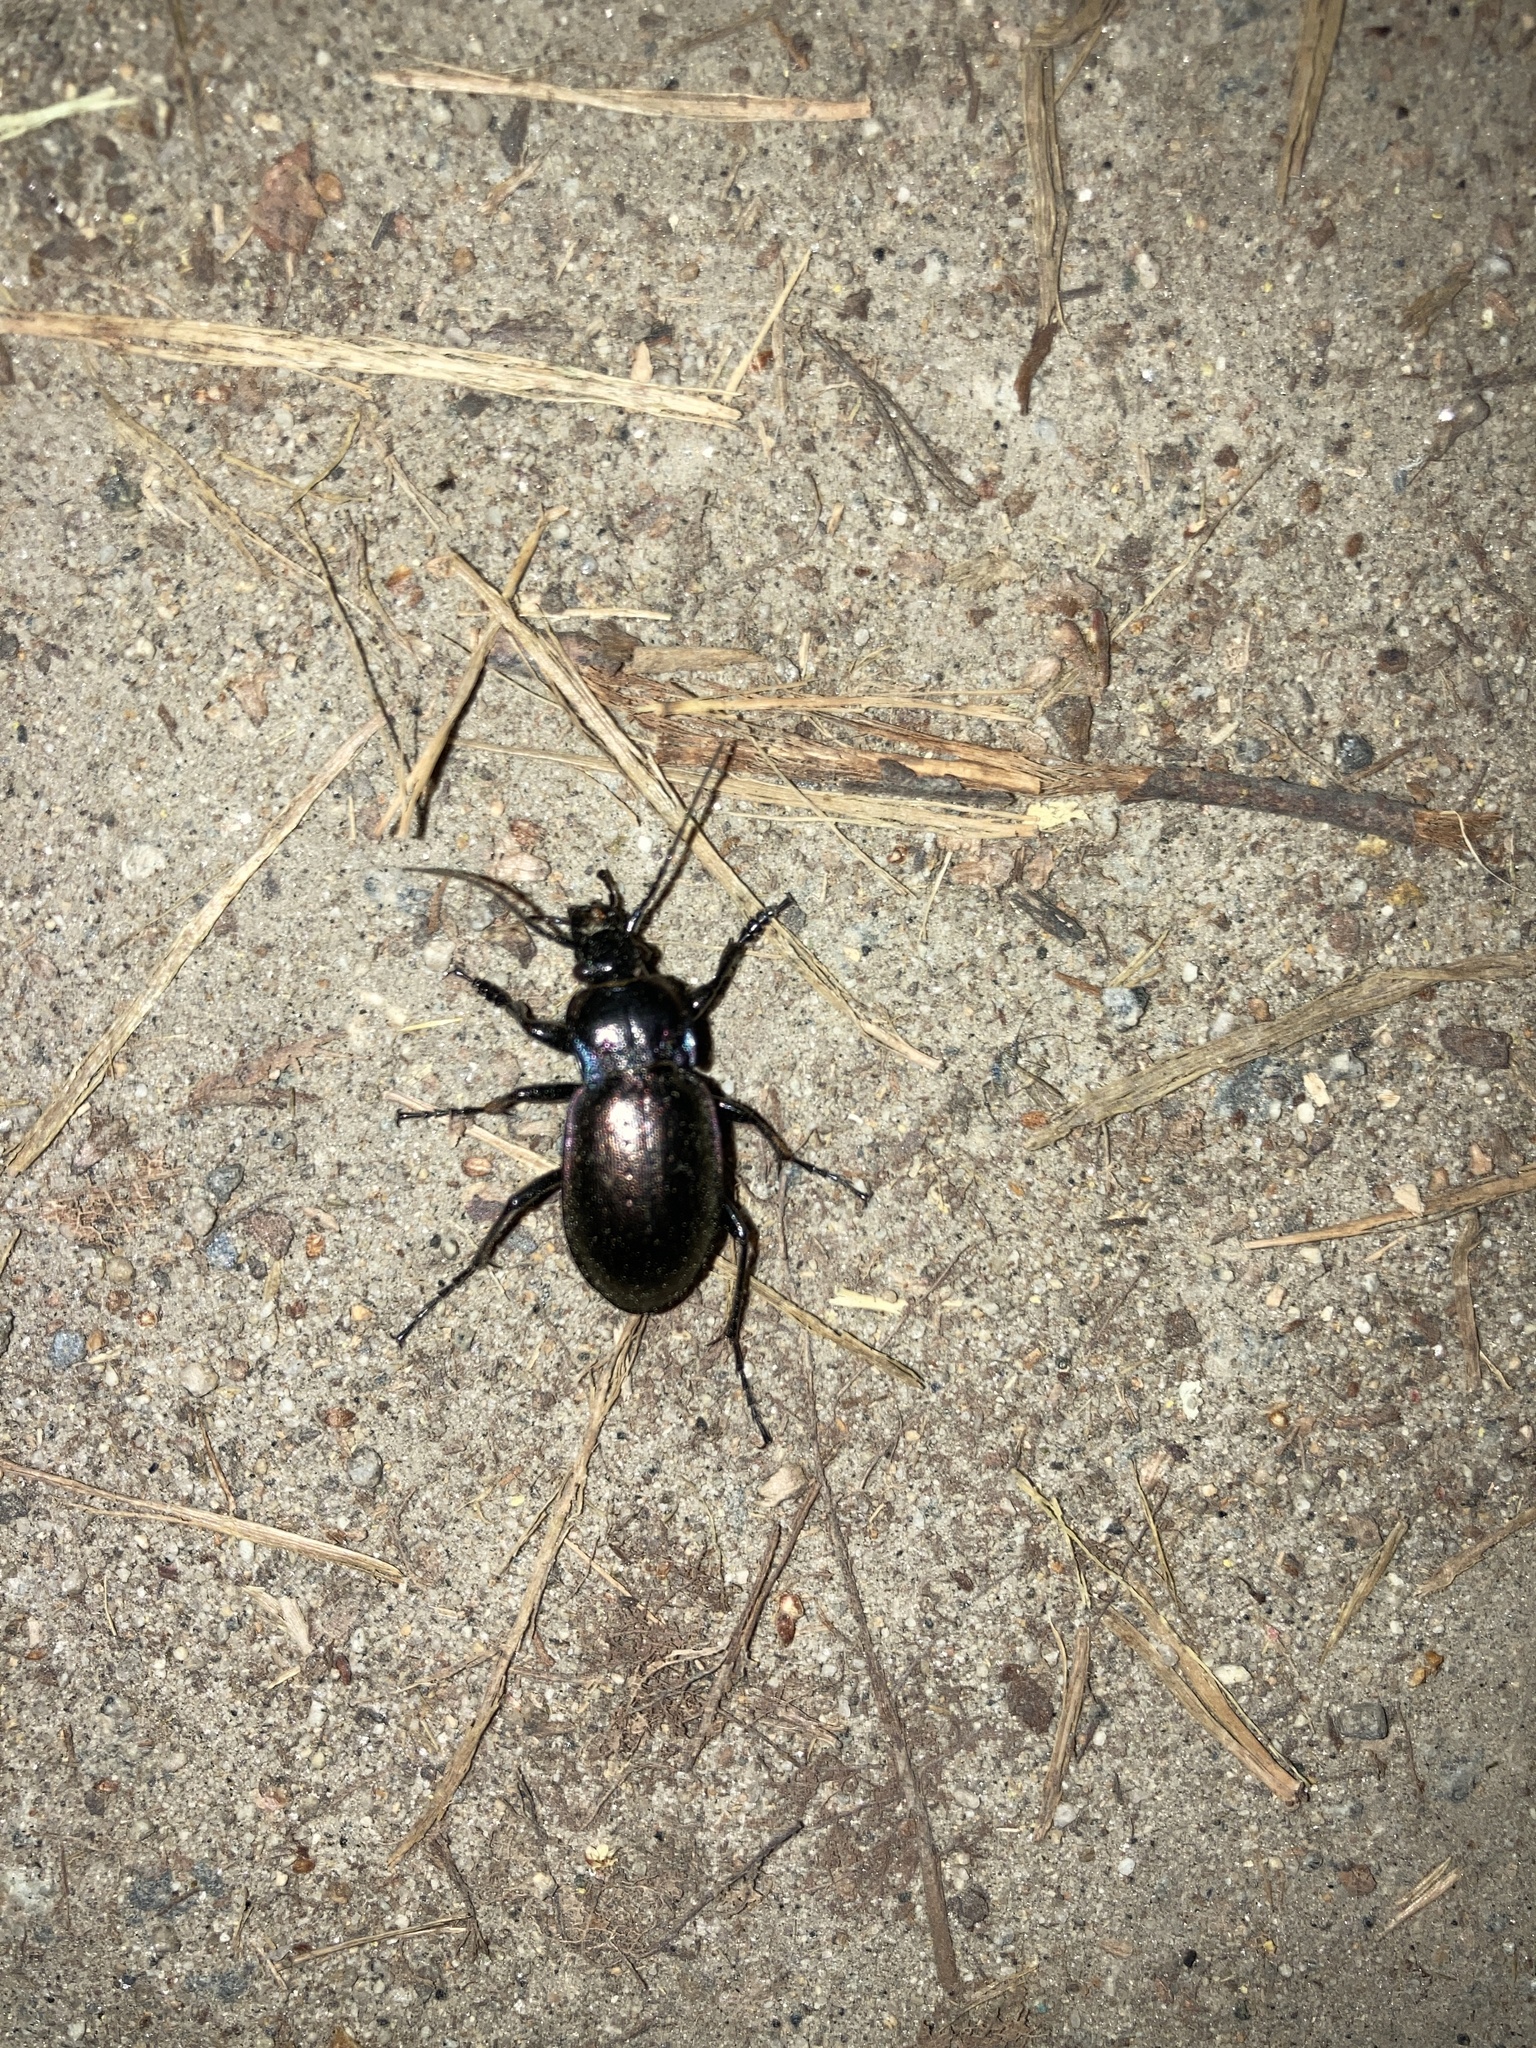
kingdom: Animalia
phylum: Arthropoda
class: Insecta
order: Coleoptera
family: Carabidae
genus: Carabus
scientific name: Carabus nemoralis
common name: European ground beetle
